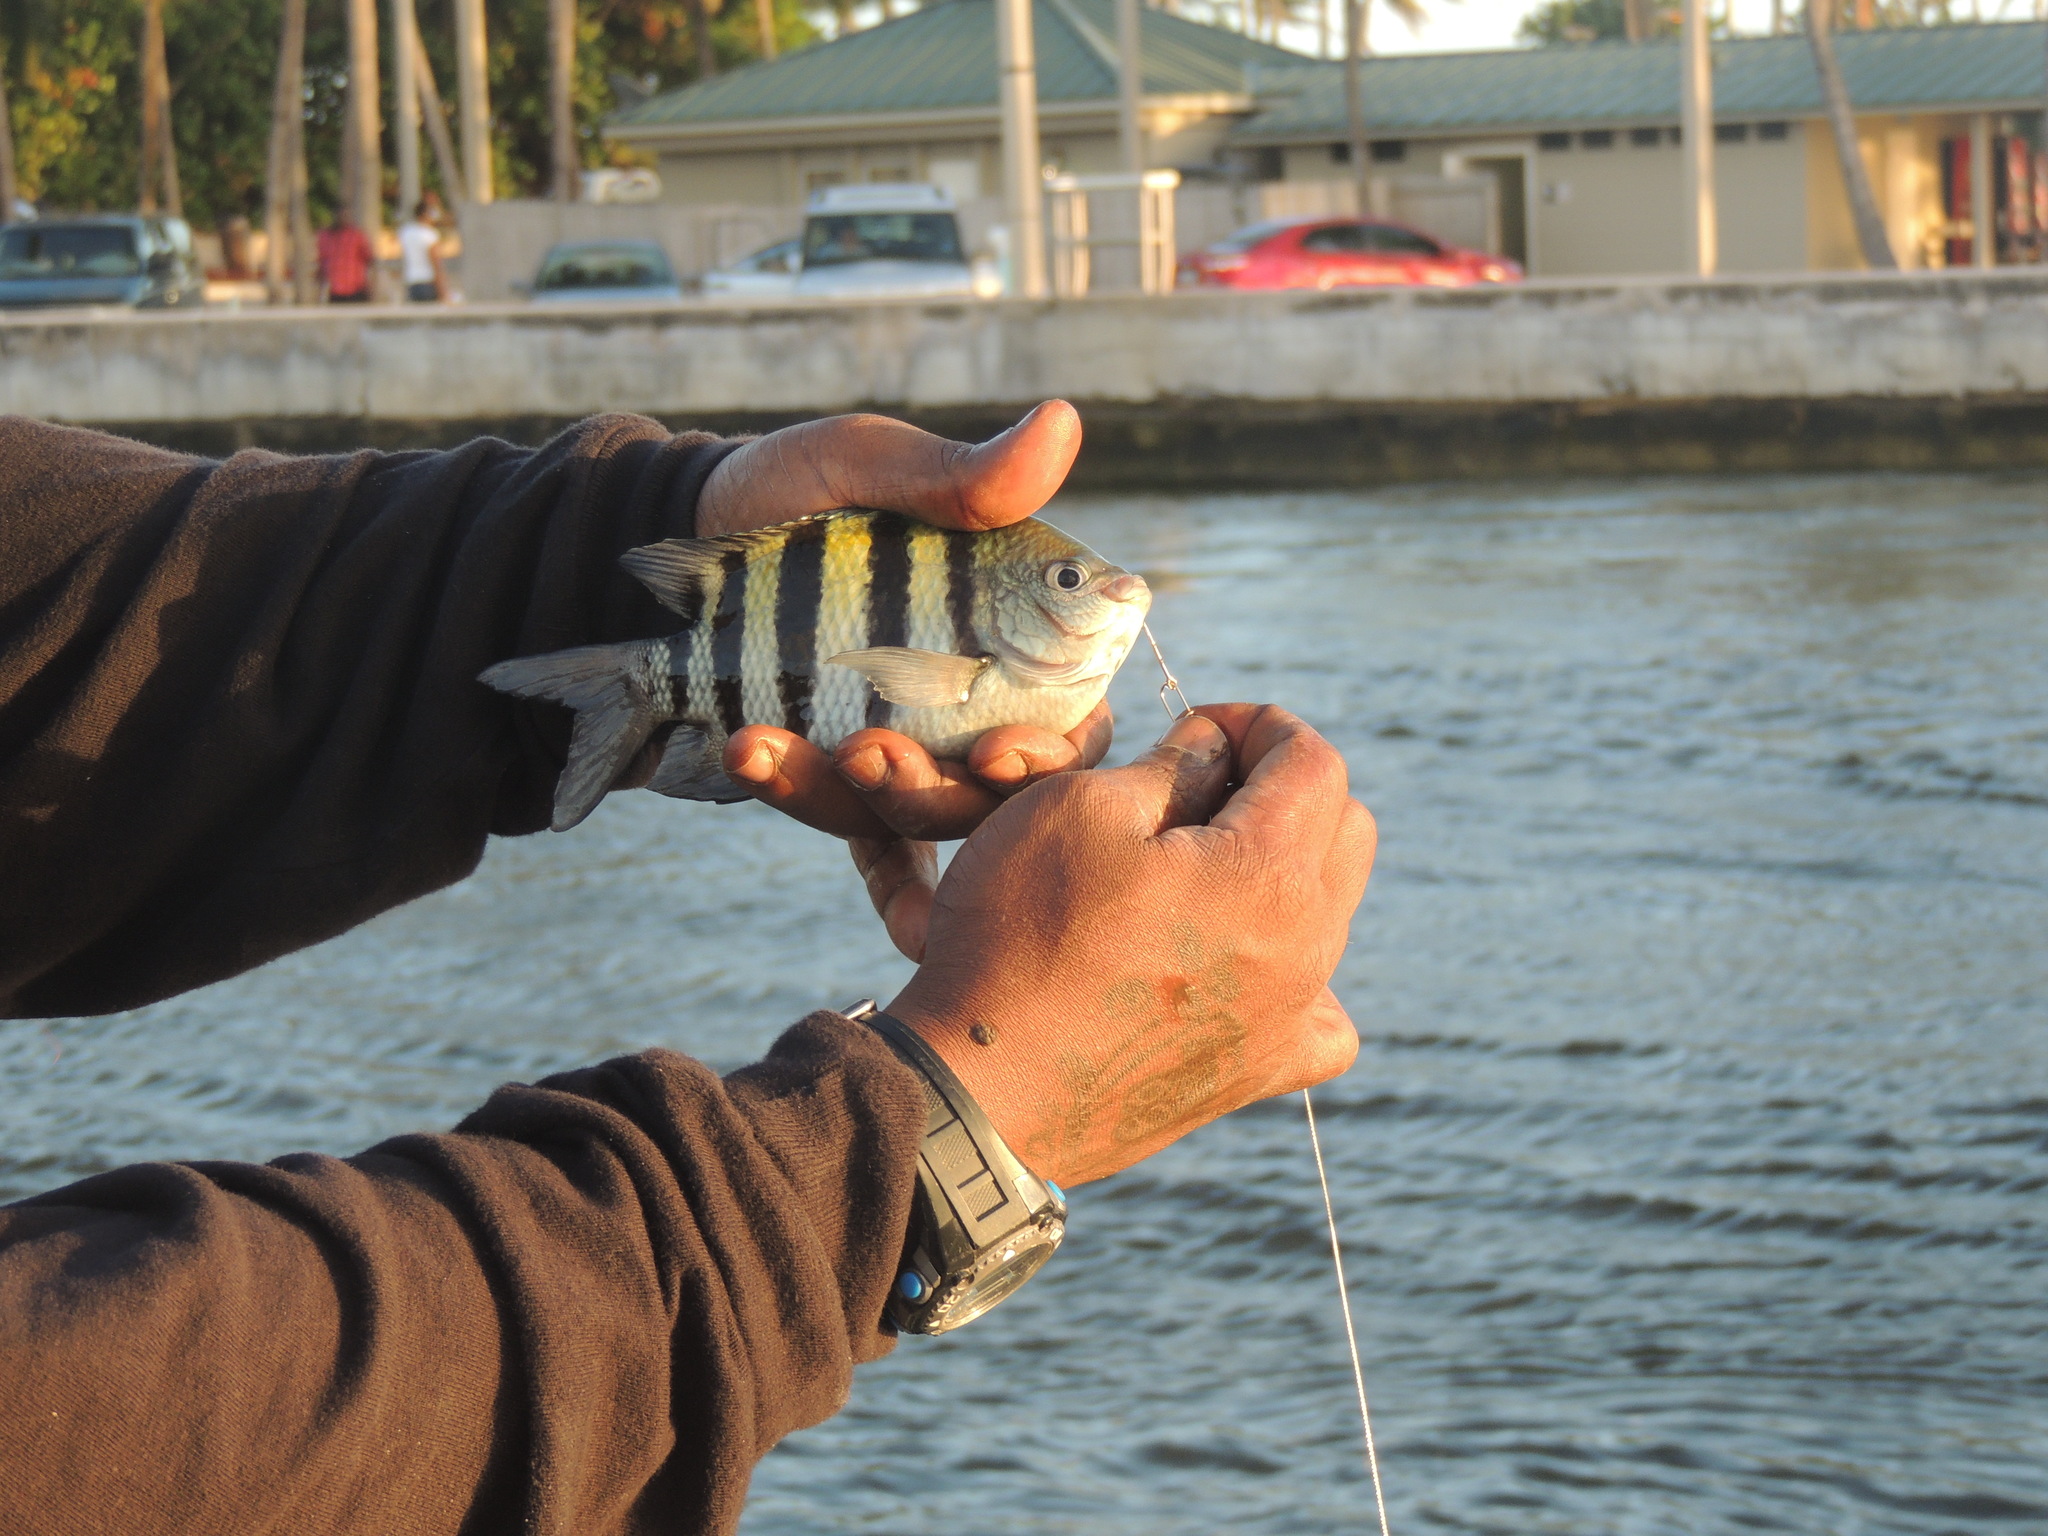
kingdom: Animalia
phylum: Chordata
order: Perciformes
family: Pomacentridae
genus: Abudefduf
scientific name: Abudefduf saxatilis
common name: Sergeant major
